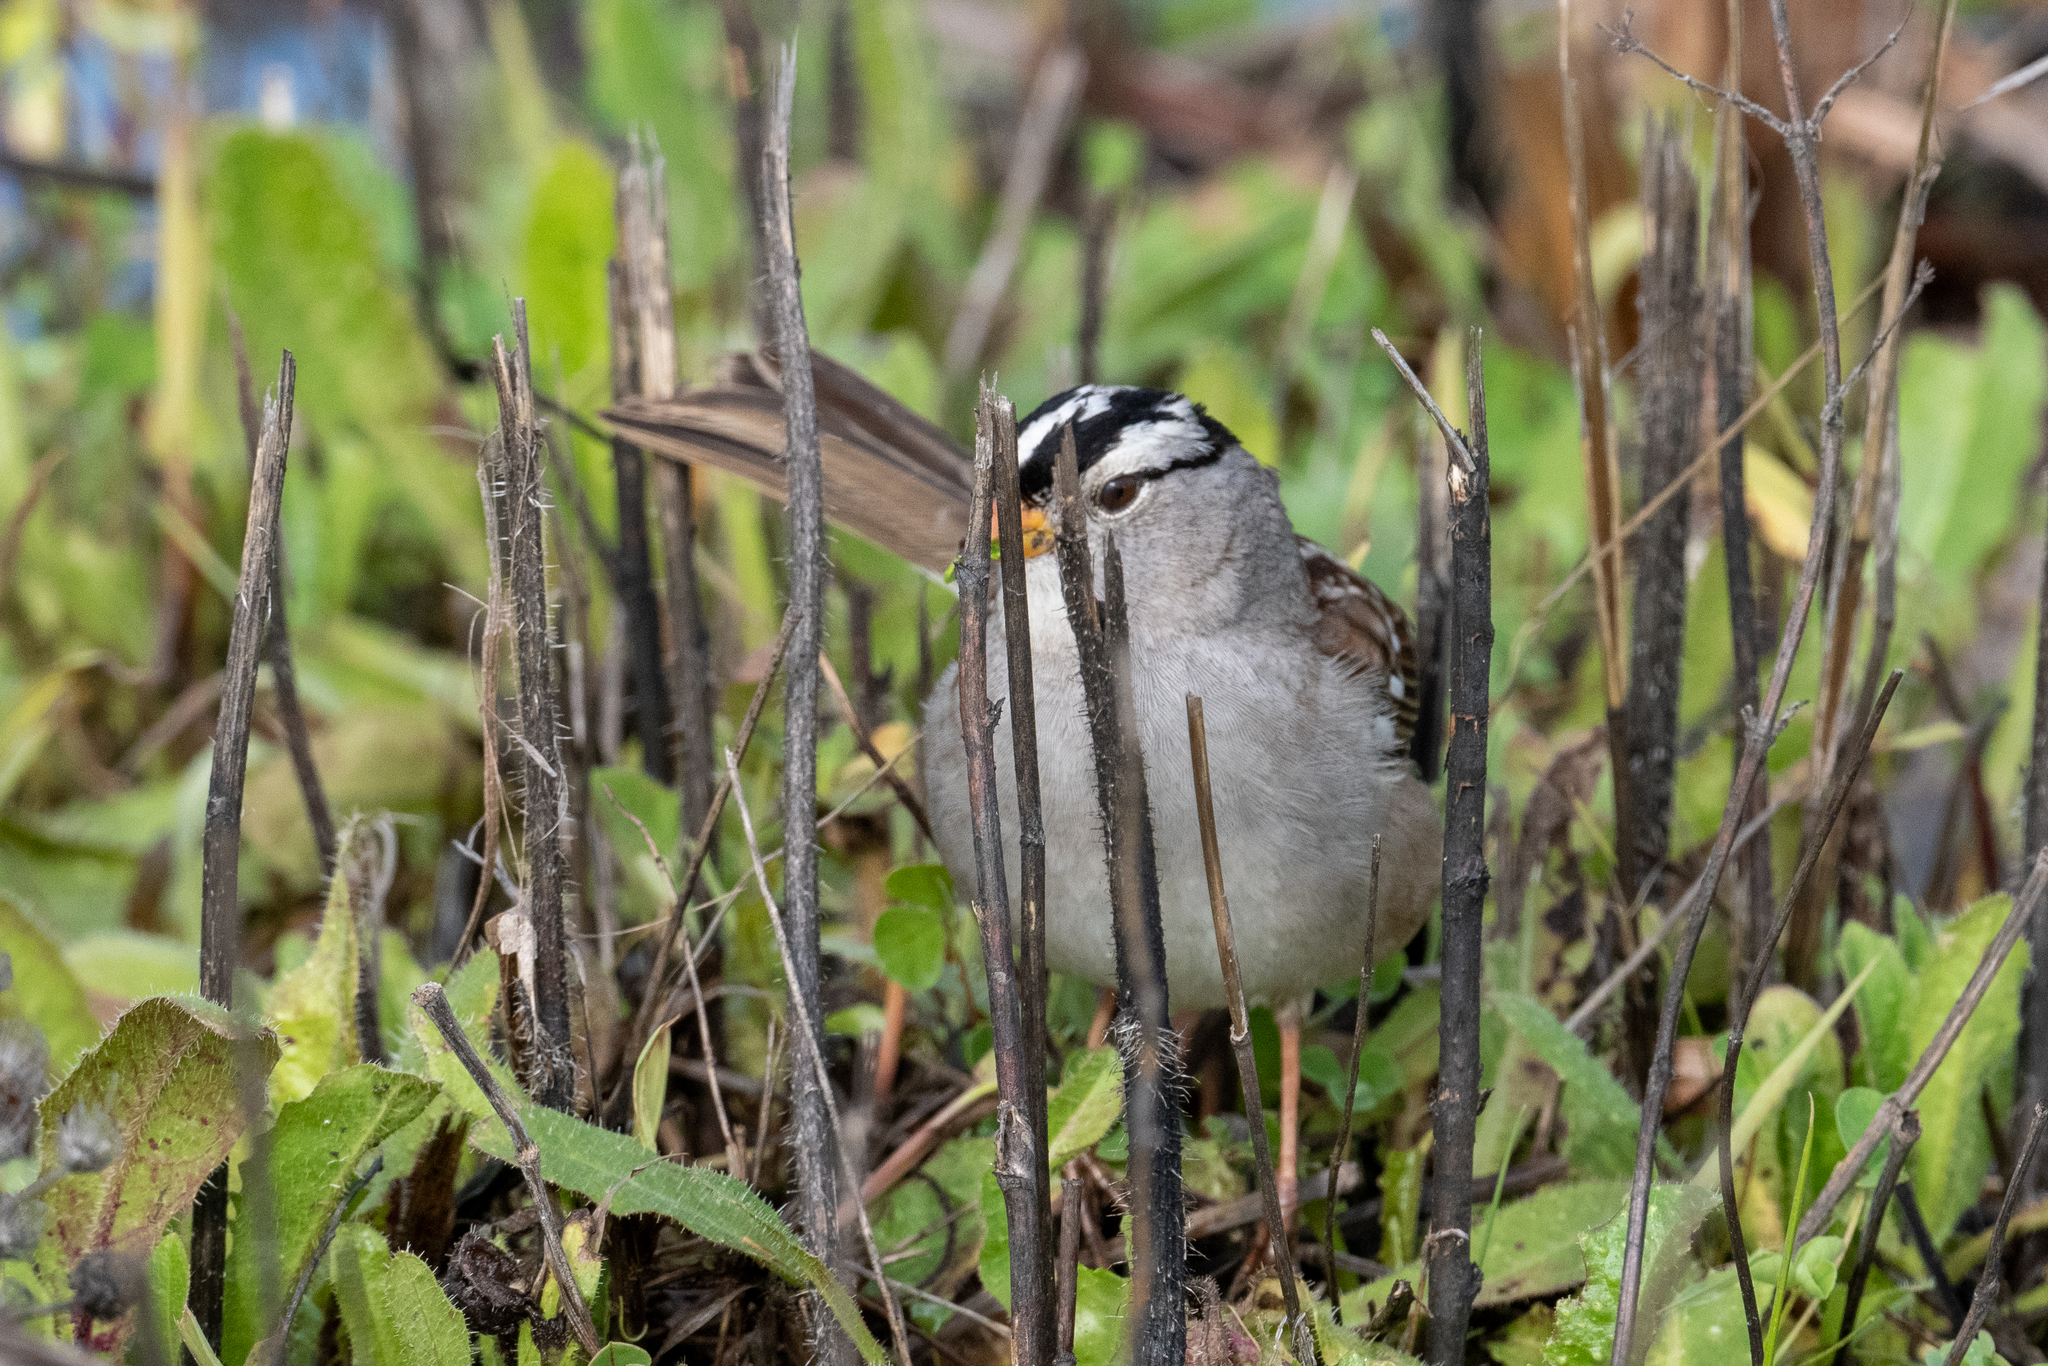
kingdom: Animalia
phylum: Chordata
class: Aves
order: Passeriformes
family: Passerellidae
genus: Zonotrichia
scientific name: Zonotrichia leucophrys
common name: White-crowned sparrow
